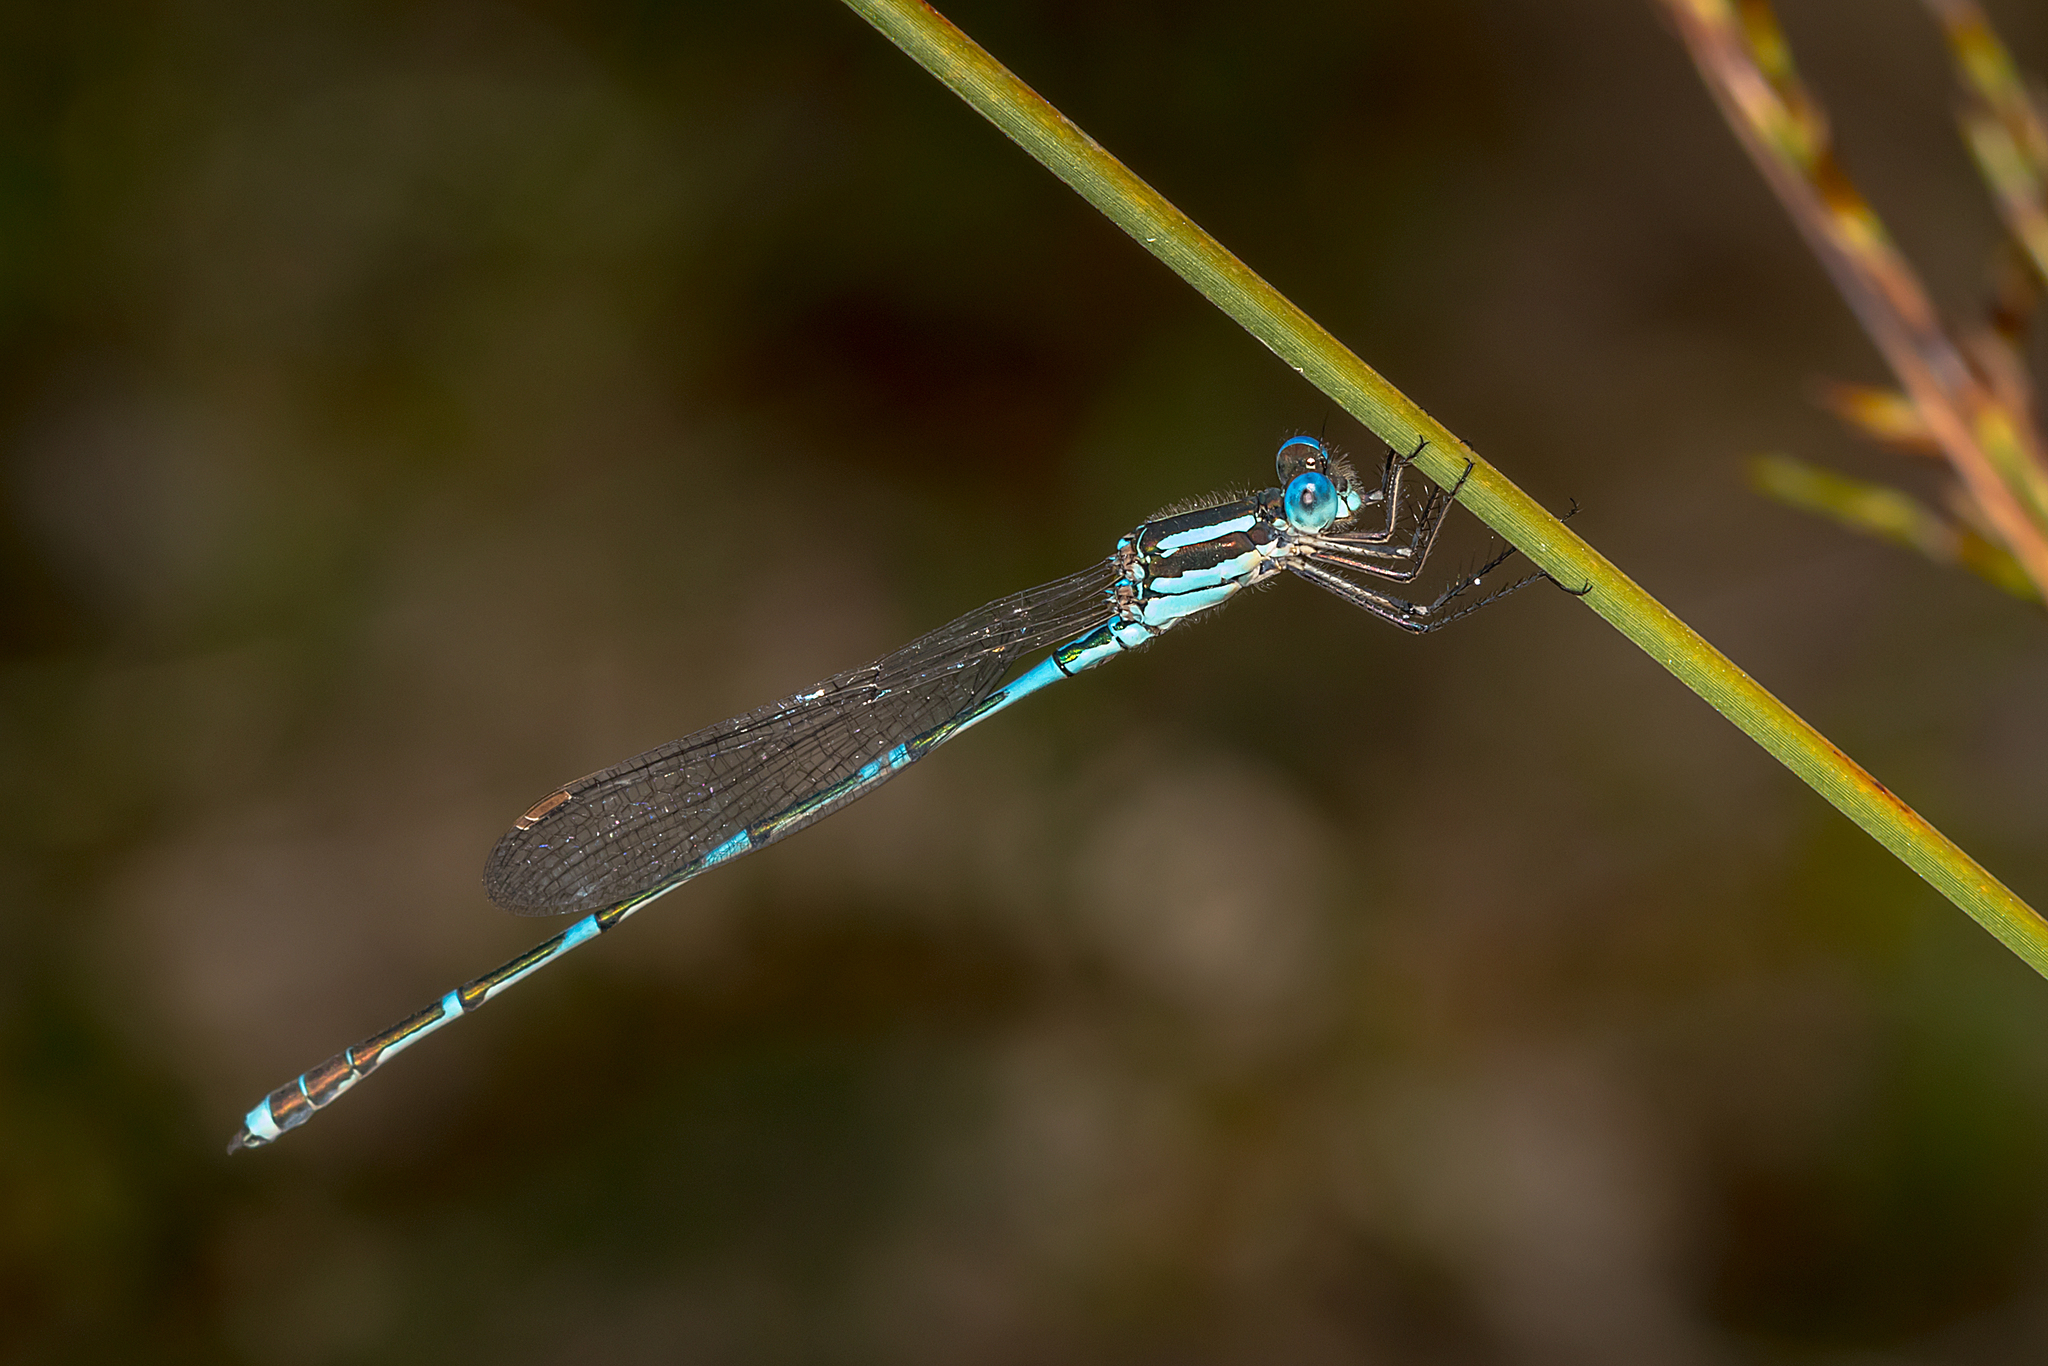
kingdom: Animalia
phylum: Arthropoda
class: Insecta
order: Odonata
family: Lestidae
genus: Austrolestes
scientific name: Austrolestes leda
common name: Wandering ringtail
